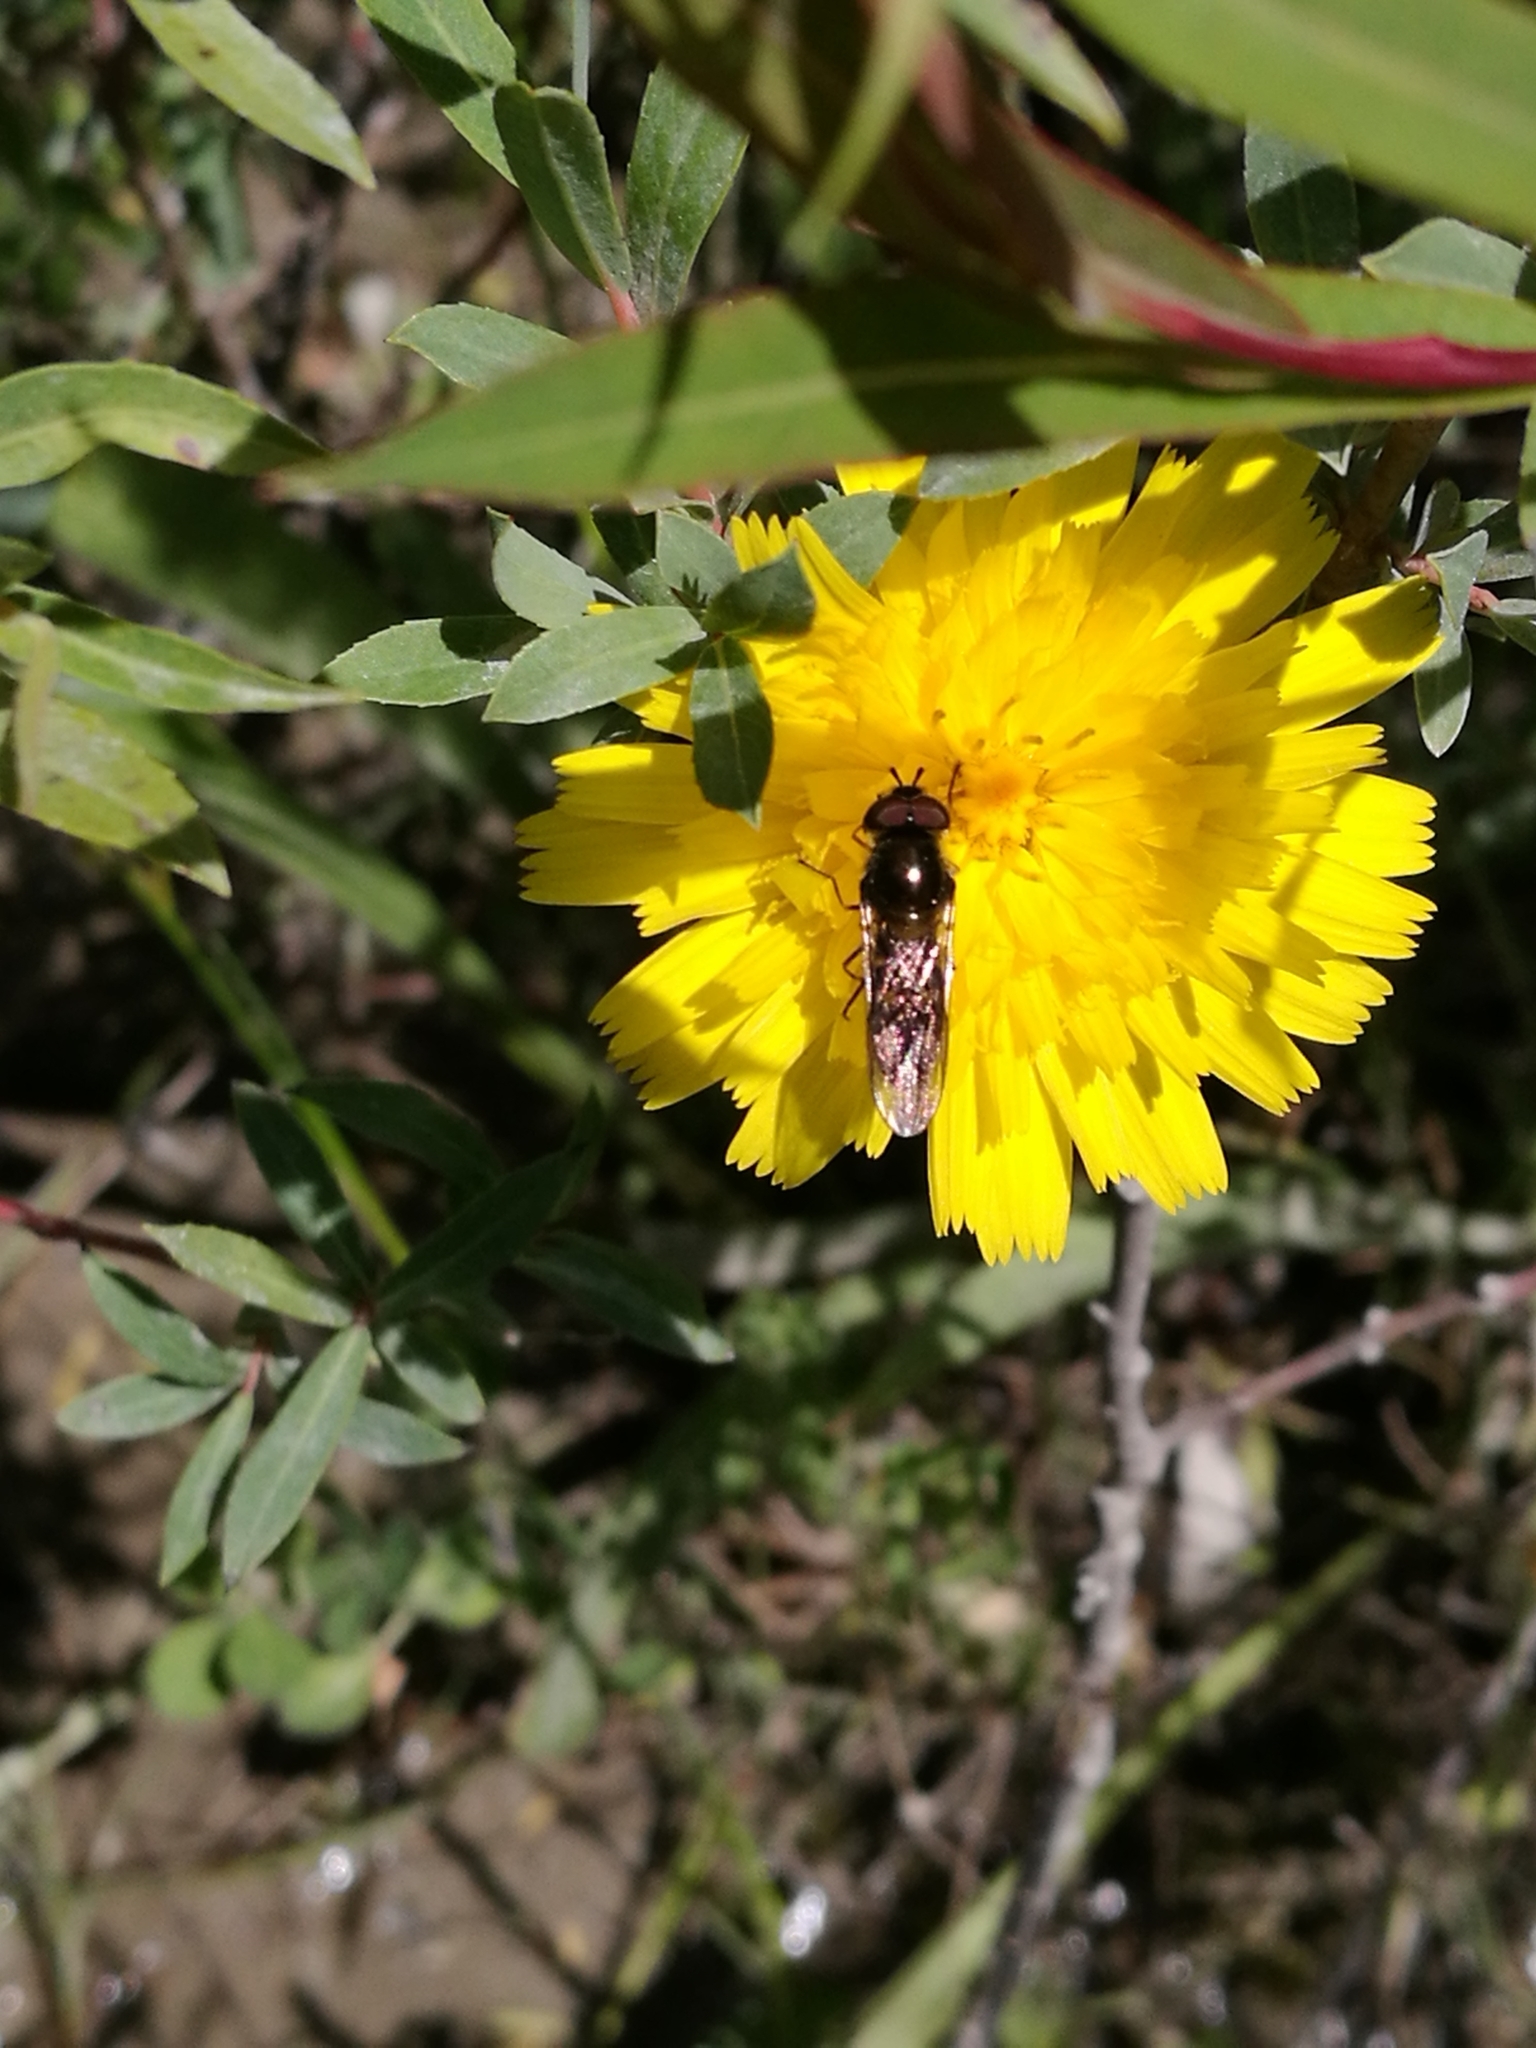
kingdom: Animalia
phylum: Arthropoda
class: Insecta
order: Diptera
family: Syrphidae
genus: Melangyna
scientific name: Melangyna novaezelandiae
